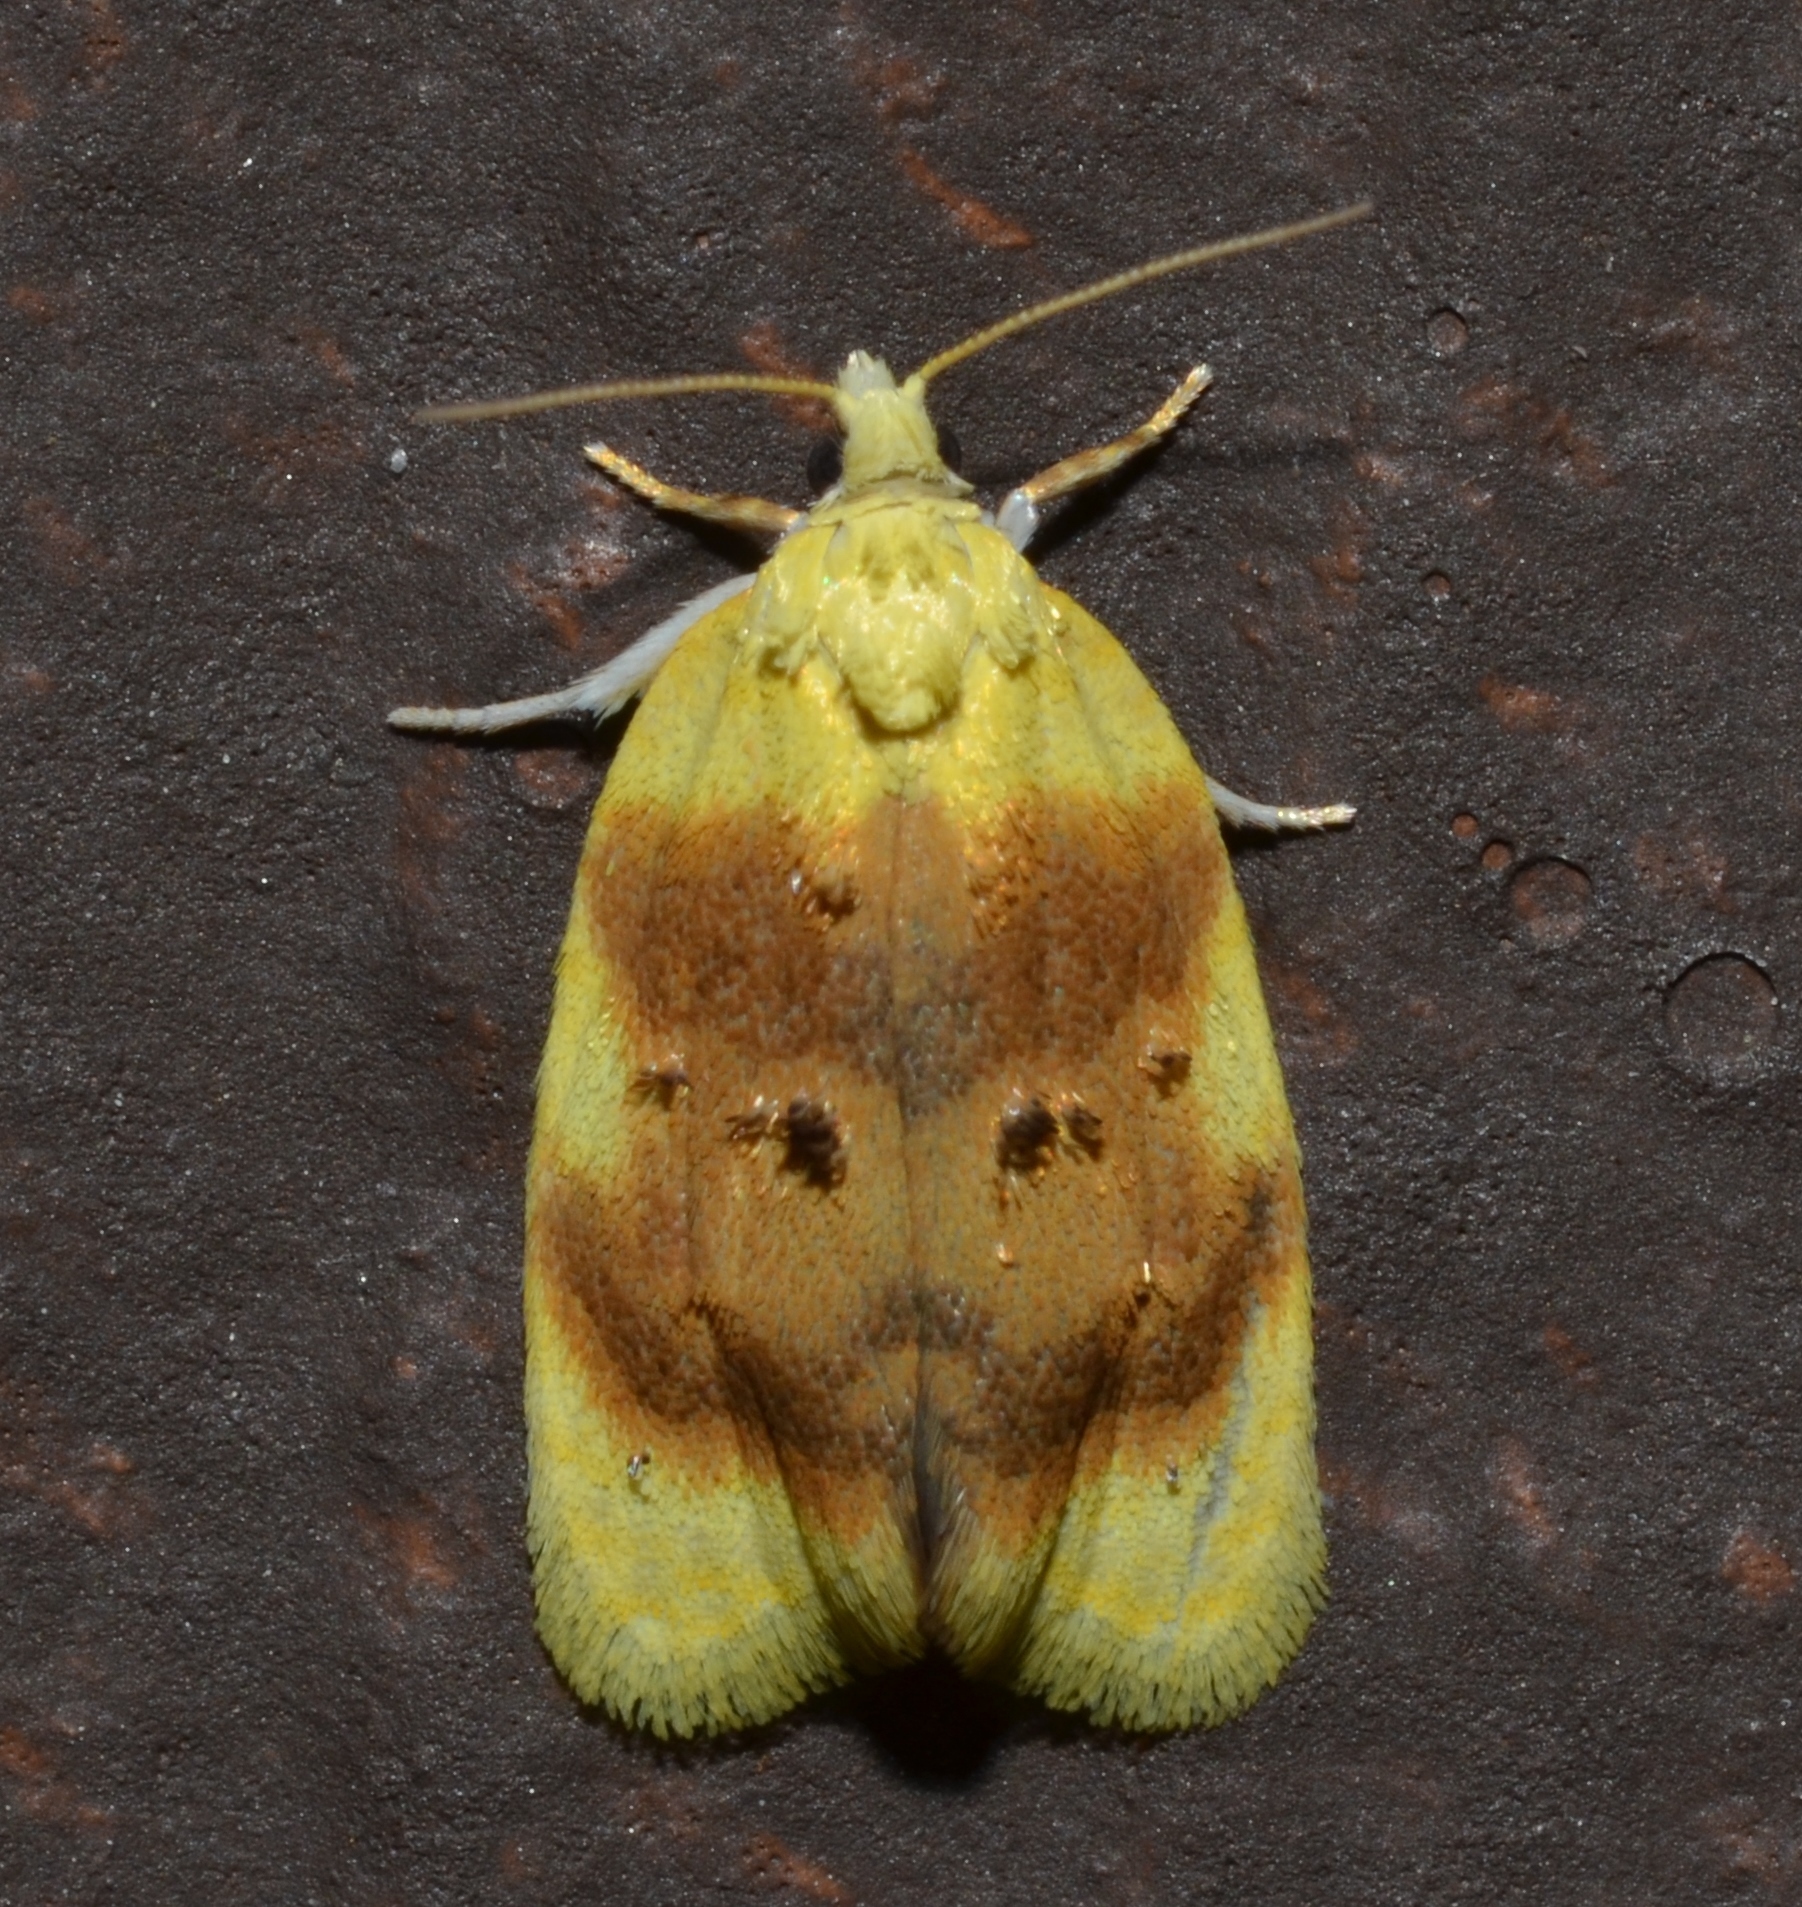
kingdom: Animalia
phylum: Arthropoda
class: Insecta
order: Lepidoptera
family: Tortricidae
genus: Acleris
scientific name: Acleris semipurpurana
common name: Oak leaftier moth
